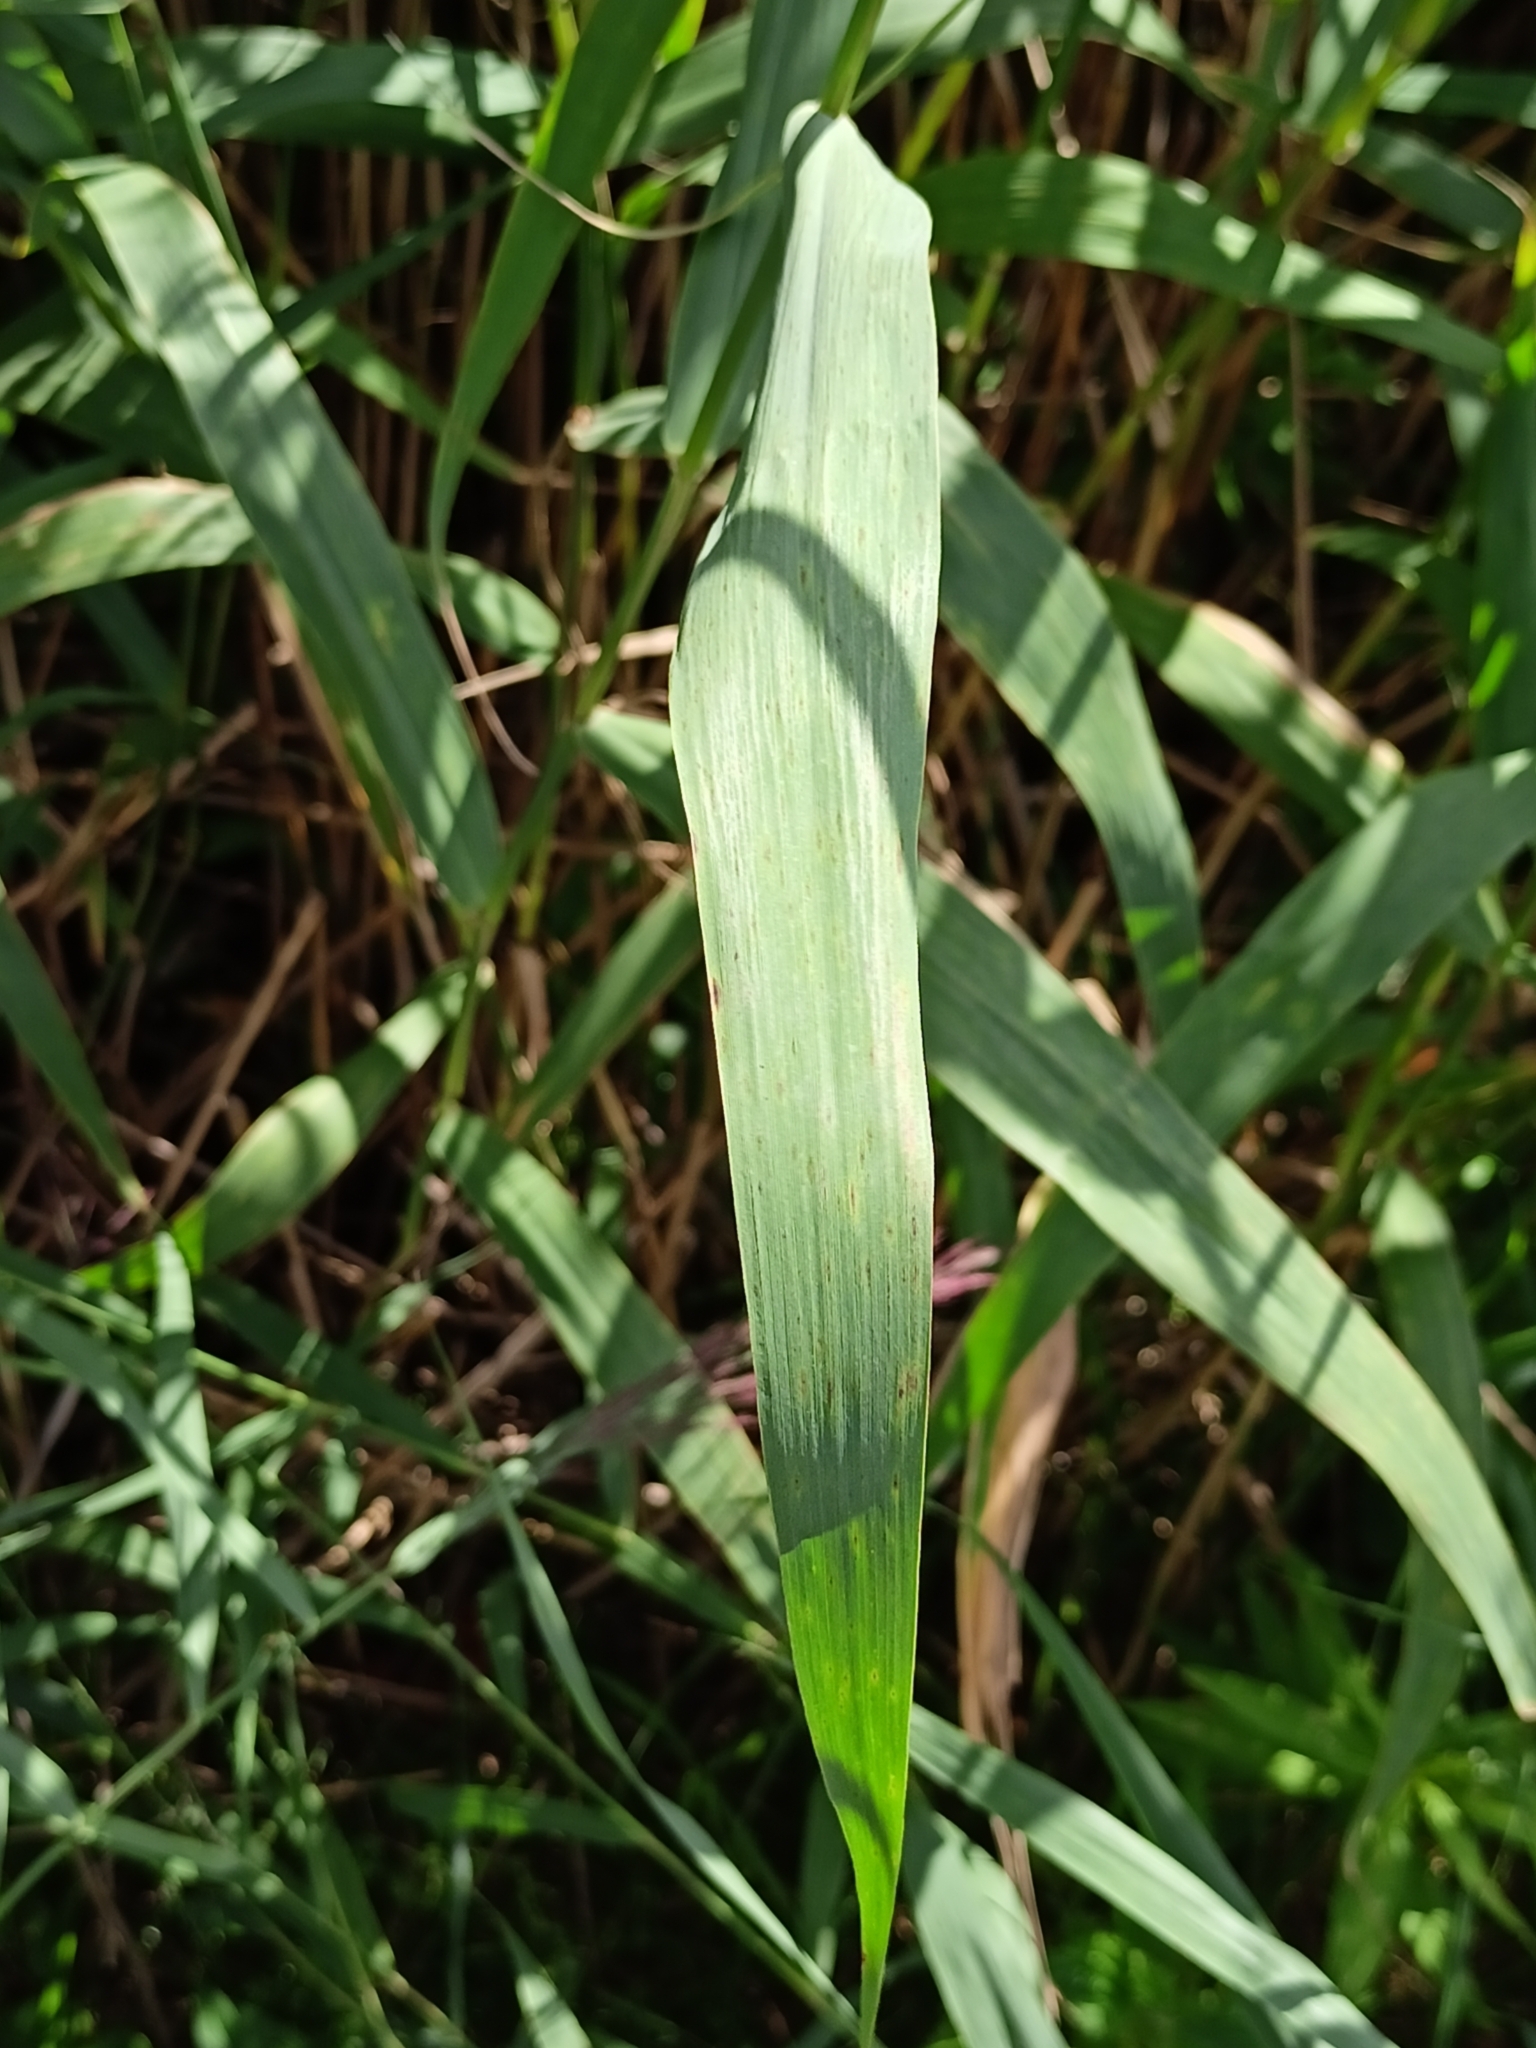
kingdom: Plantae
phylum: Tracheophyta
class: Liliopsida
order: Poales
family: Poaceae
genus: Phragmites
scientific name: Phragmites australis
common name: Common reed
